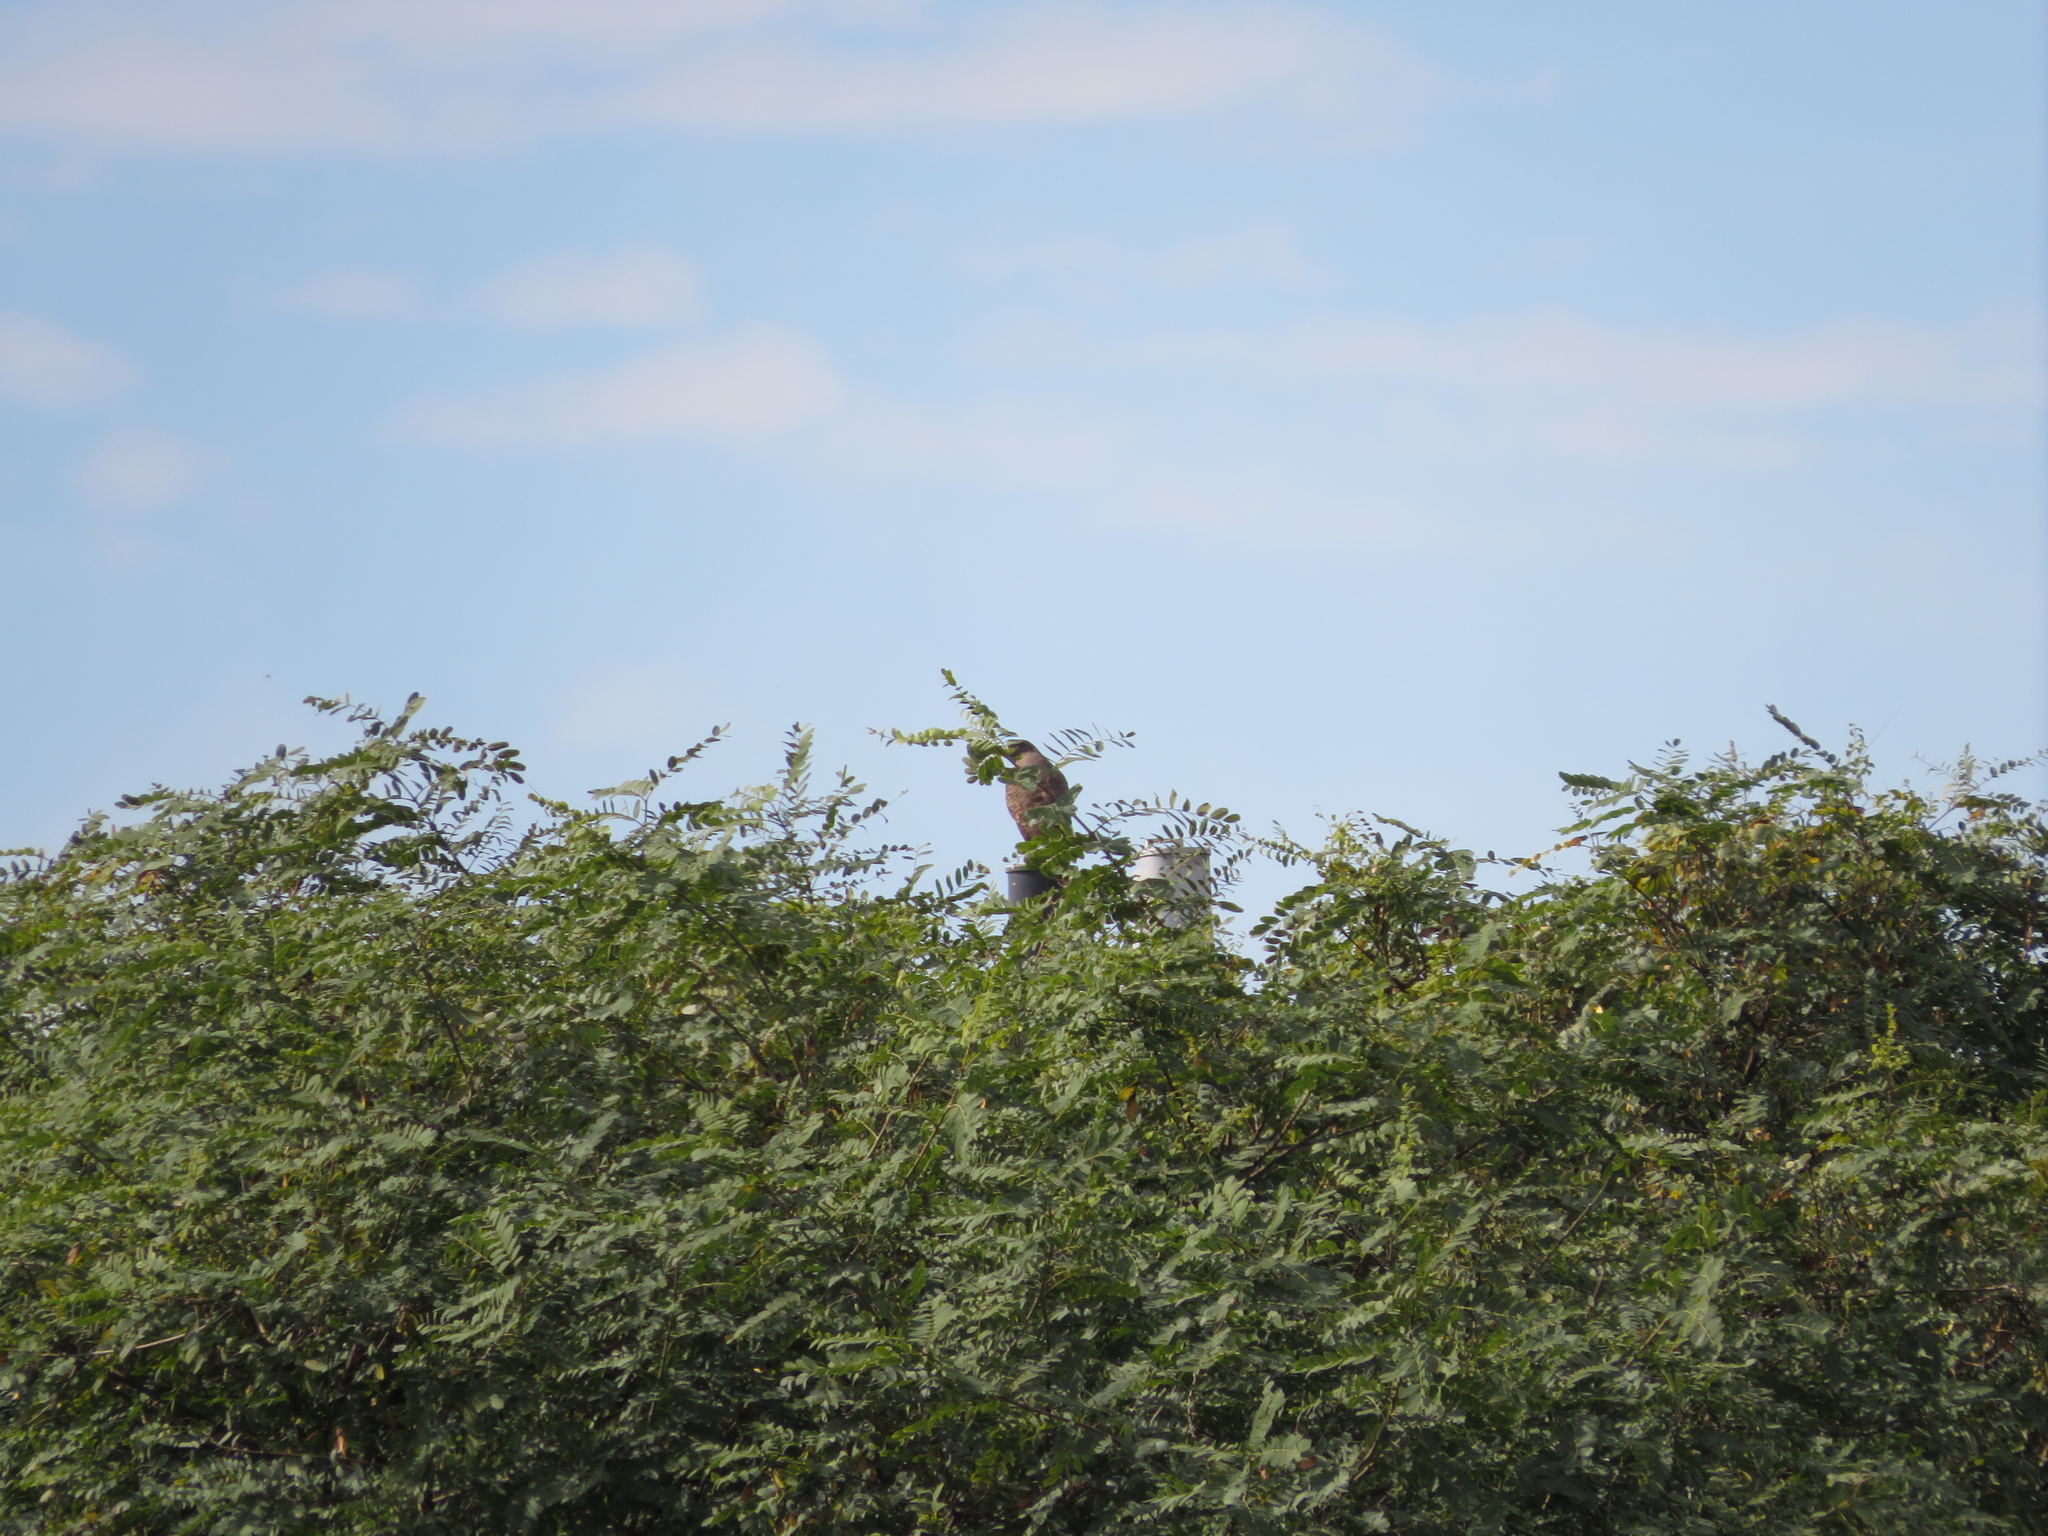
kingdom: Animalia
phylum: Chordata
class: Aves
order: Accipitriformes
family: Accipitridae
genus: Rupornis
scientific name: Rupornis magnirostris
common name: Roadside hawk
